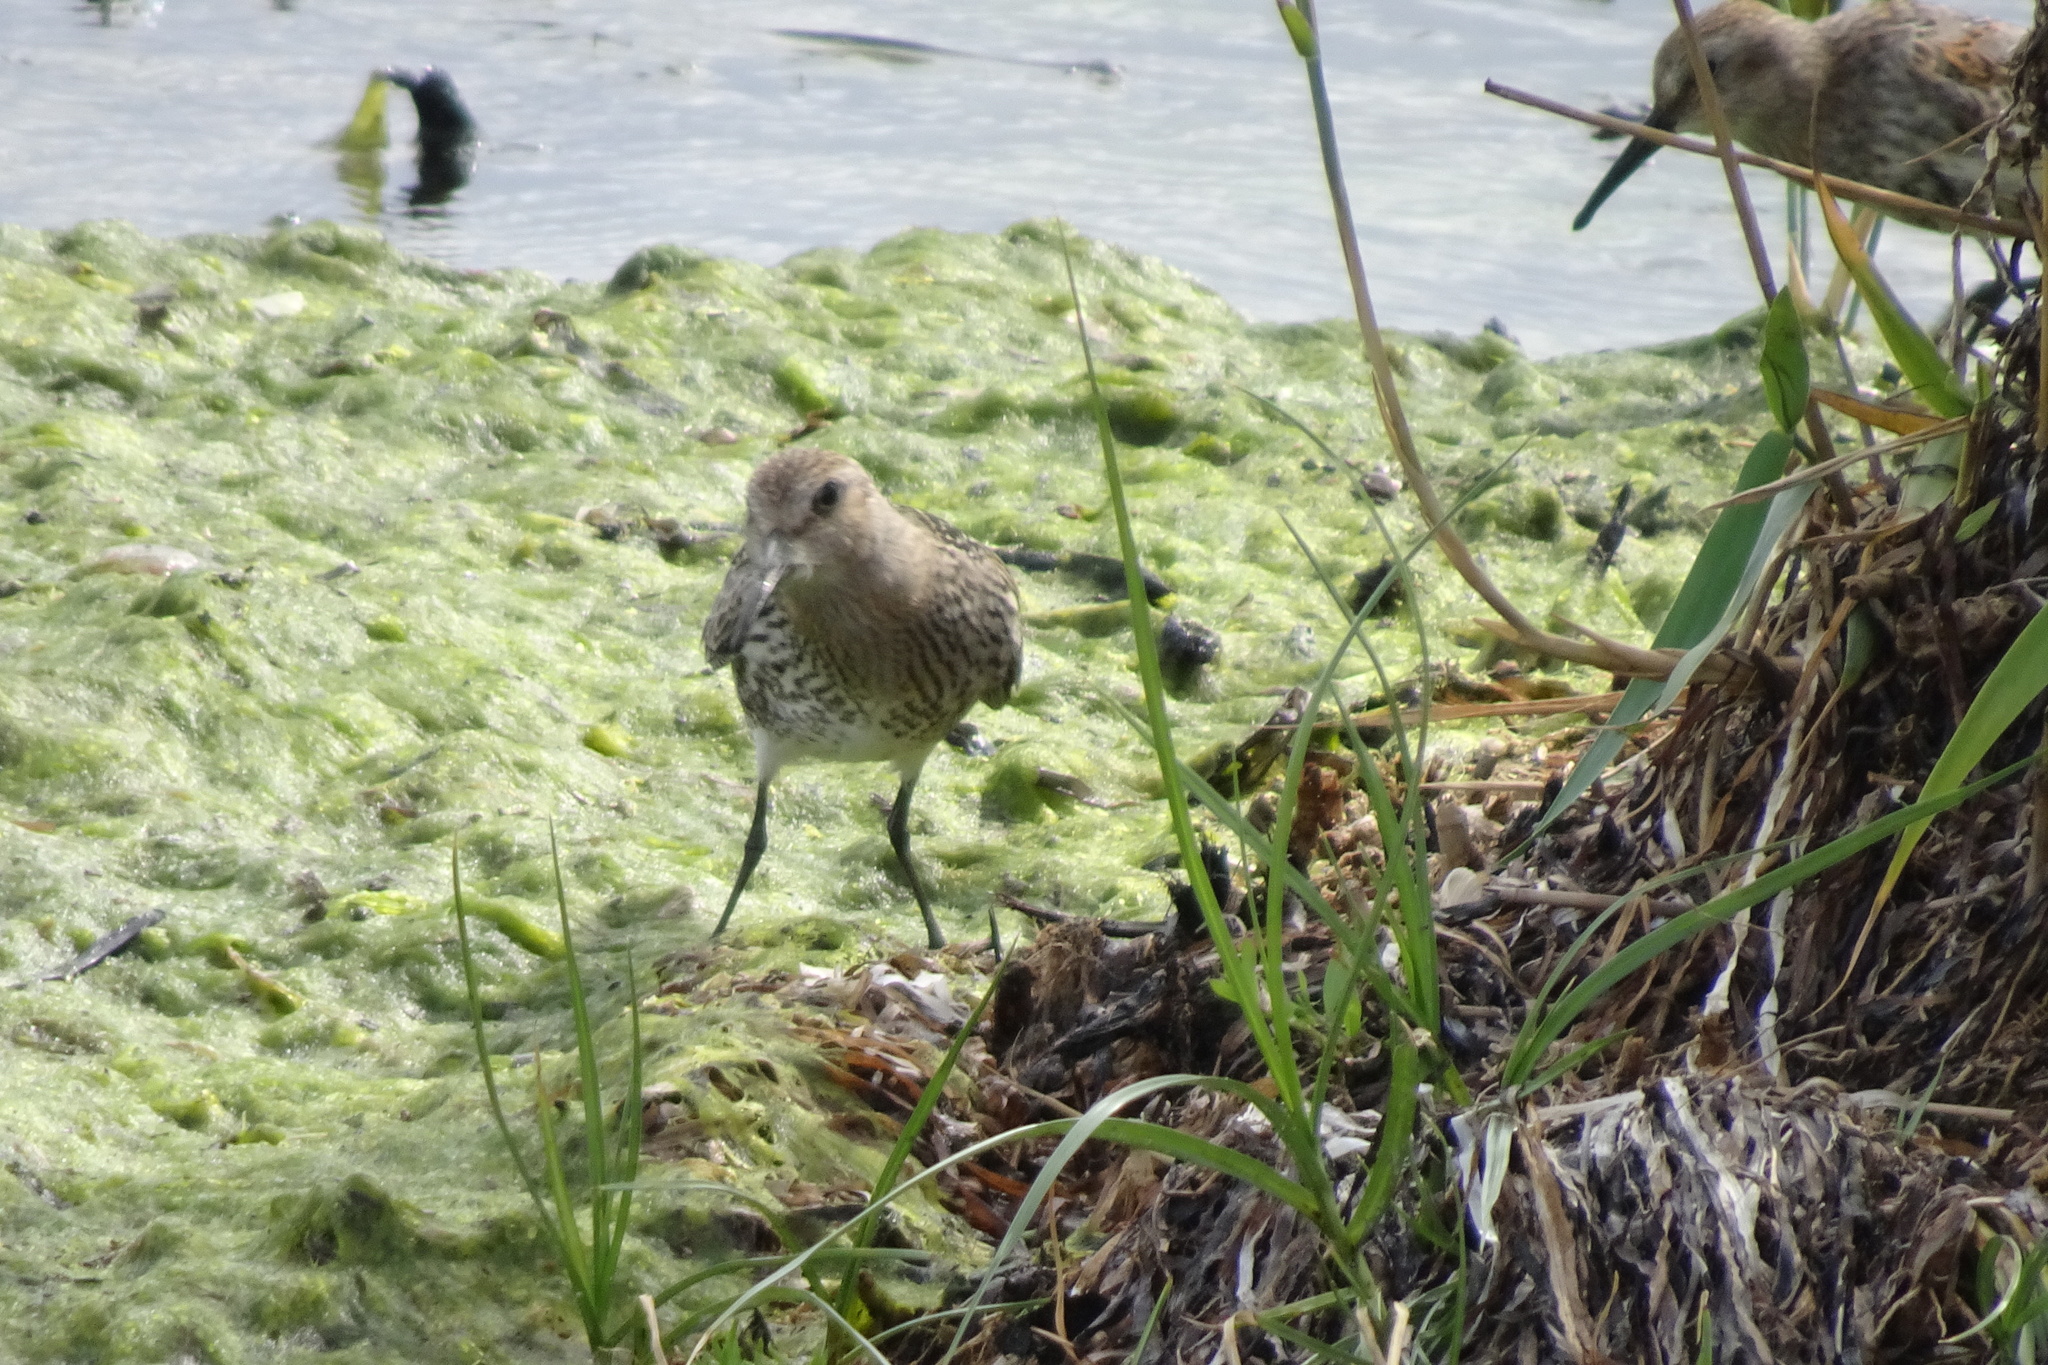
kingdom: Animalia
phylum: Chordata
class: Aves
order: Charadriiformes
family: Scolopacidae
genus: Calidris
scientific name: Calidris alpina
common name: Dunlin
